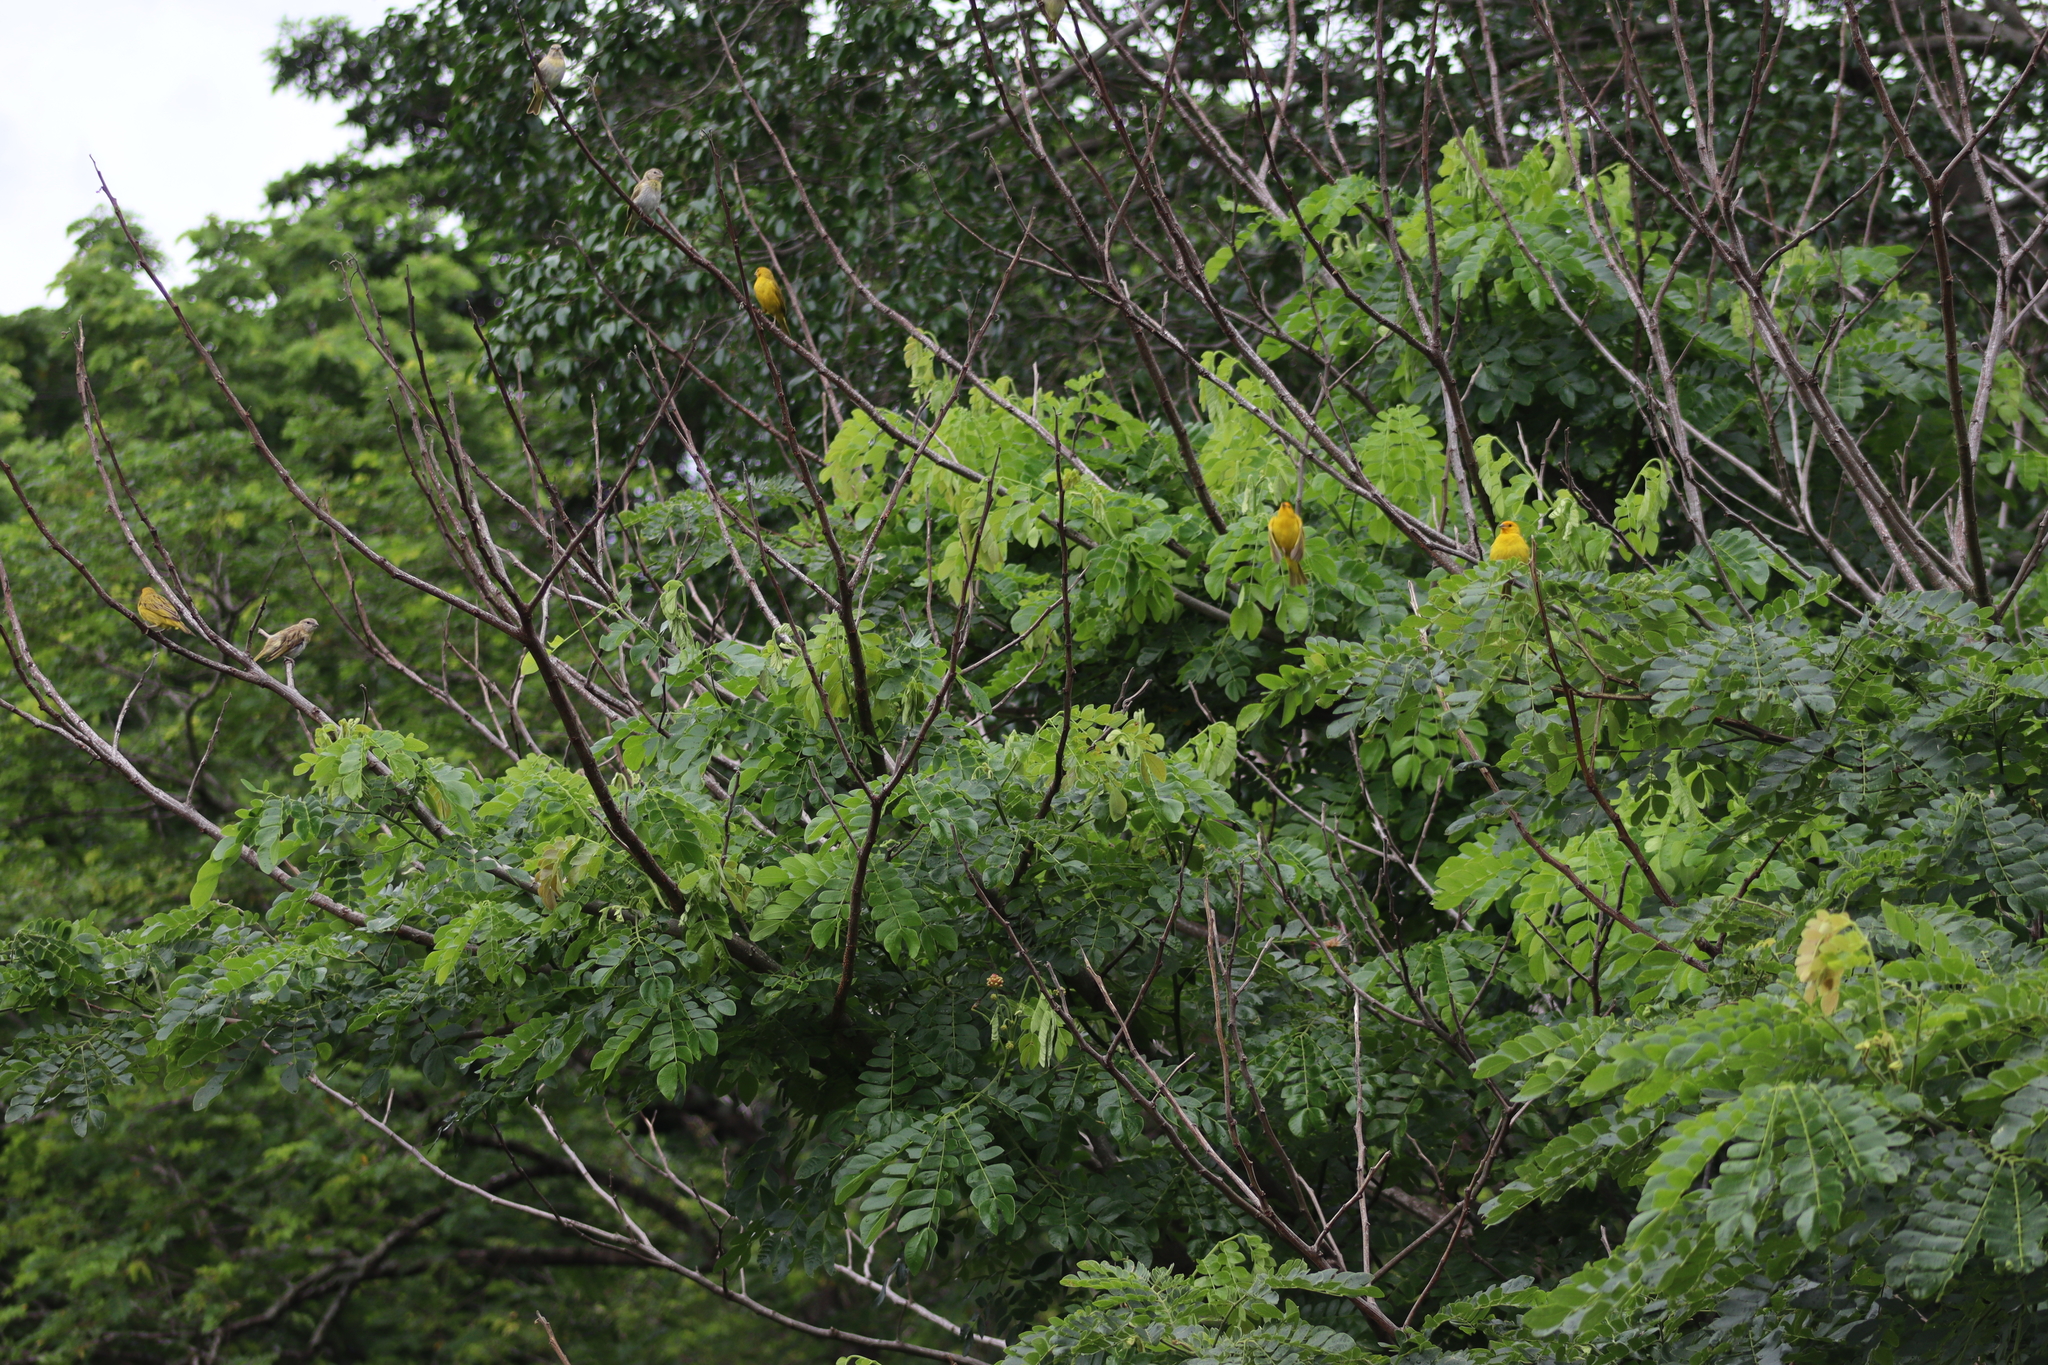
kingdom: Animalia
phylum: Chordata
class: Aves
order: Passeriformes
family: Thraupidae
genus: Sicalis
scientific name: Sicalis flaveola
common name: Saffron finch
